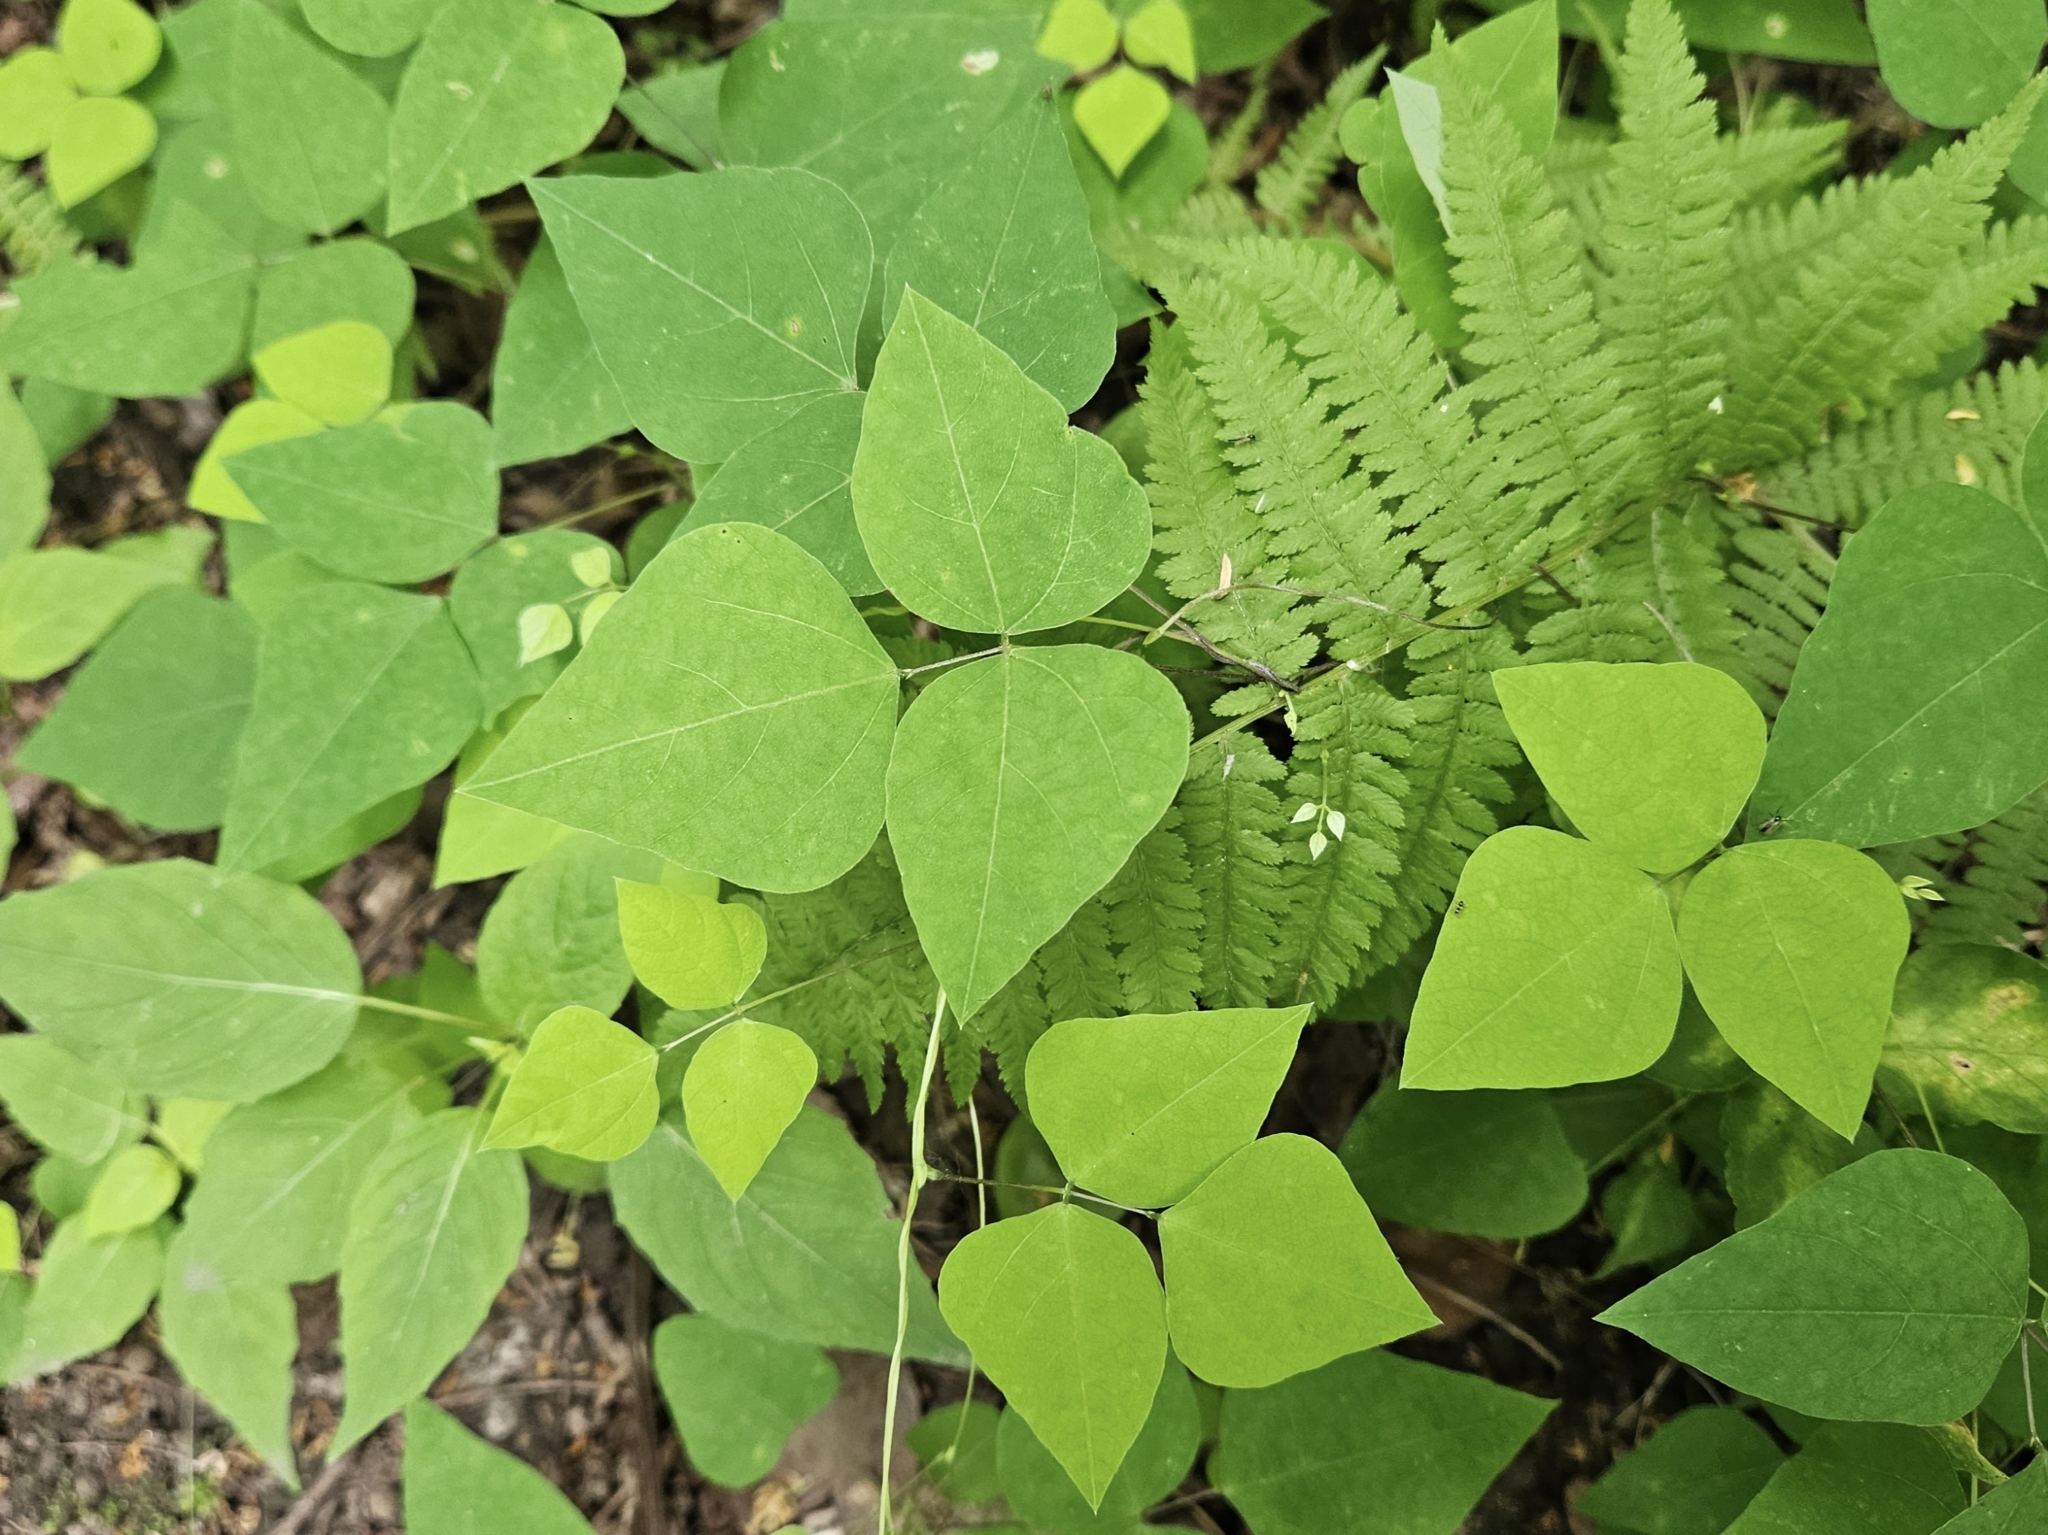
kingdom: Plantae
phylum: Tracheophyta
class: Magnoliopsida
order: Fabales
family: Fabaceae
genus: Amphicarpaea
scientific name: Amphicarpaea bracteata
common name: American hog peanut
